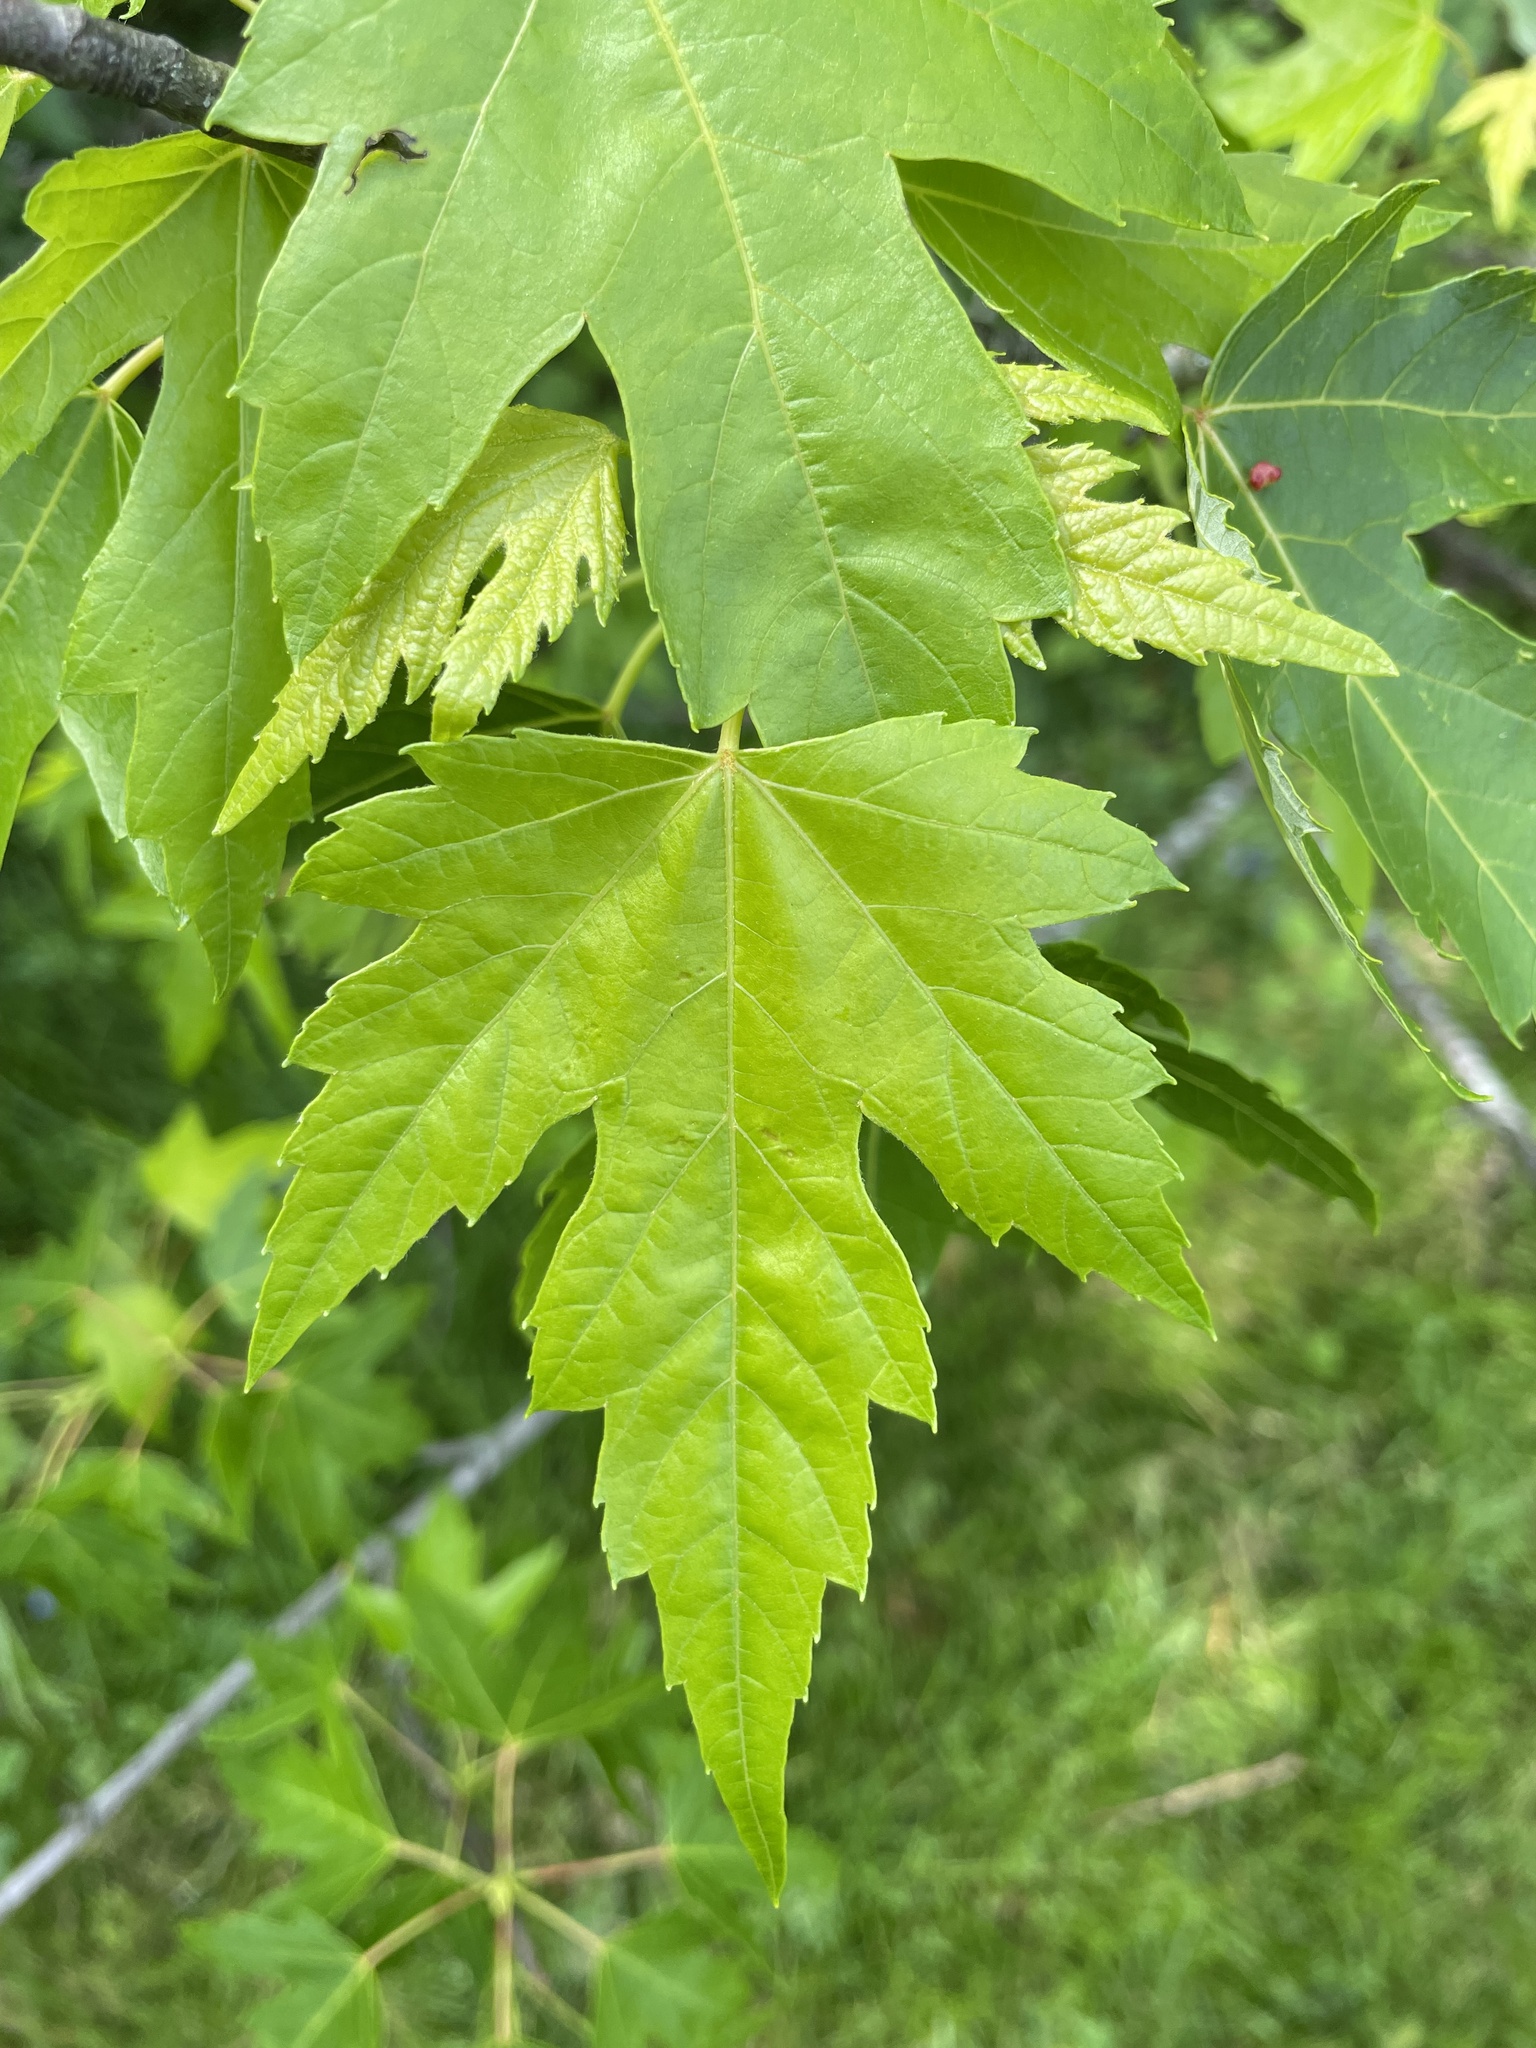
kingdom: Plantae
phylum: Tracheophyta
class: Magnoliopsida
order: Sapindales
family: Sapindaceae
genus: Acer
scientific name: Acer saccharinum
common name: Silver maple
